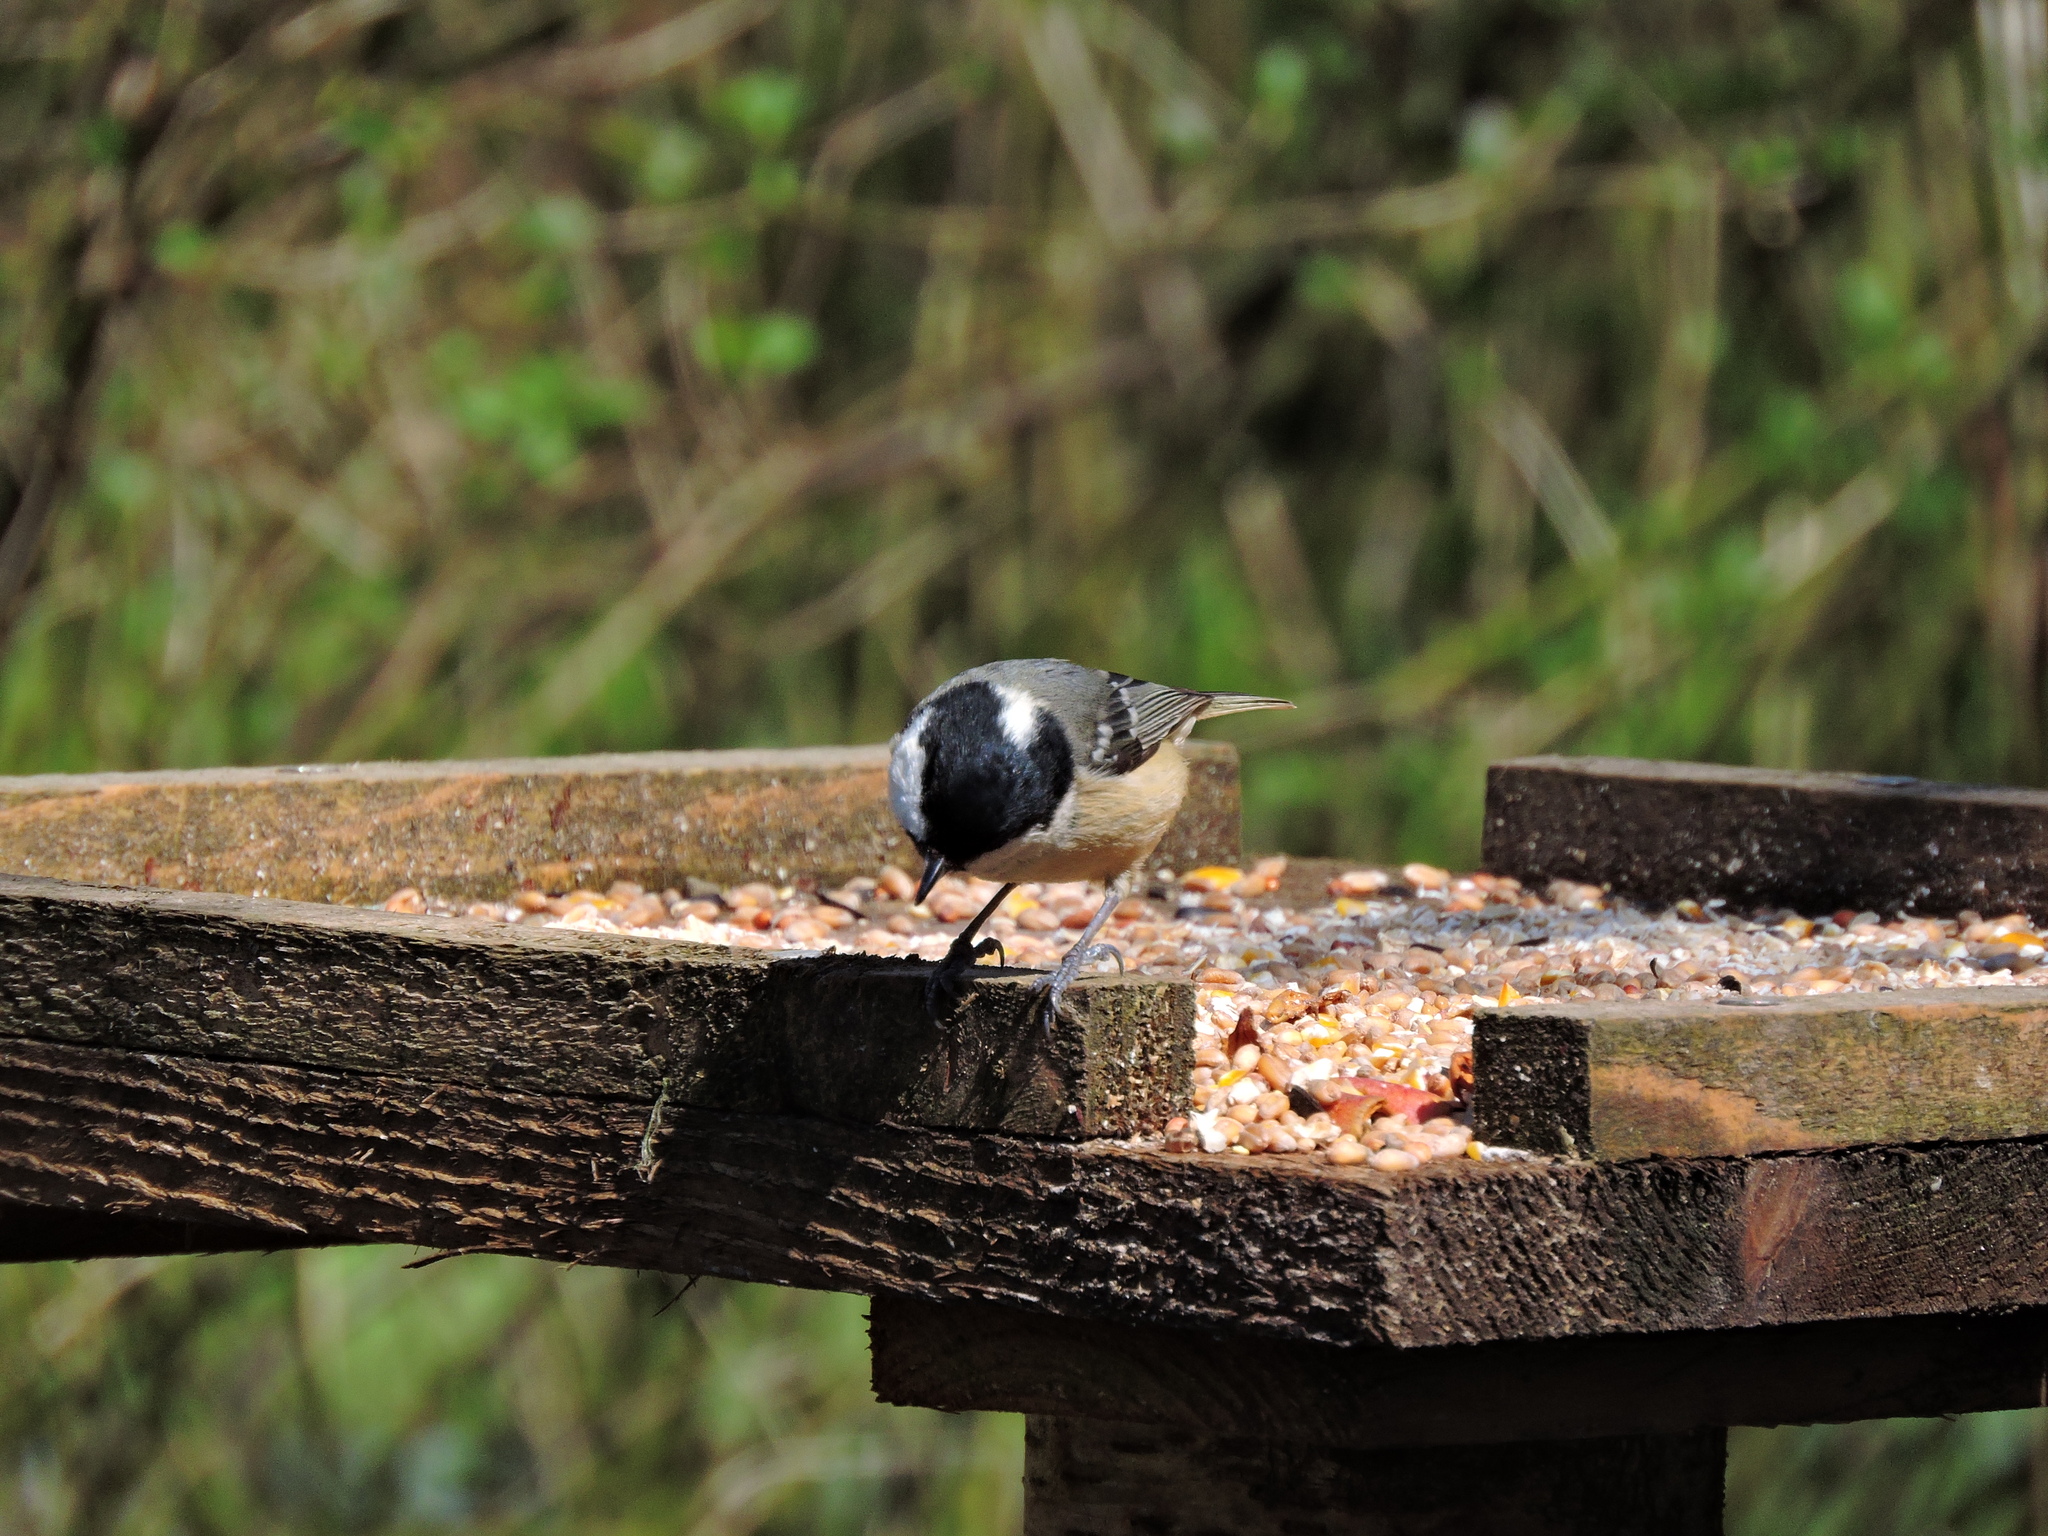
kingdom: Animalia
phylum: Chordata
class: Aves
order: Passeriformes
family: Paridae
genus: Periparus
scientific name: Periparus ater
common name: Coal tit
